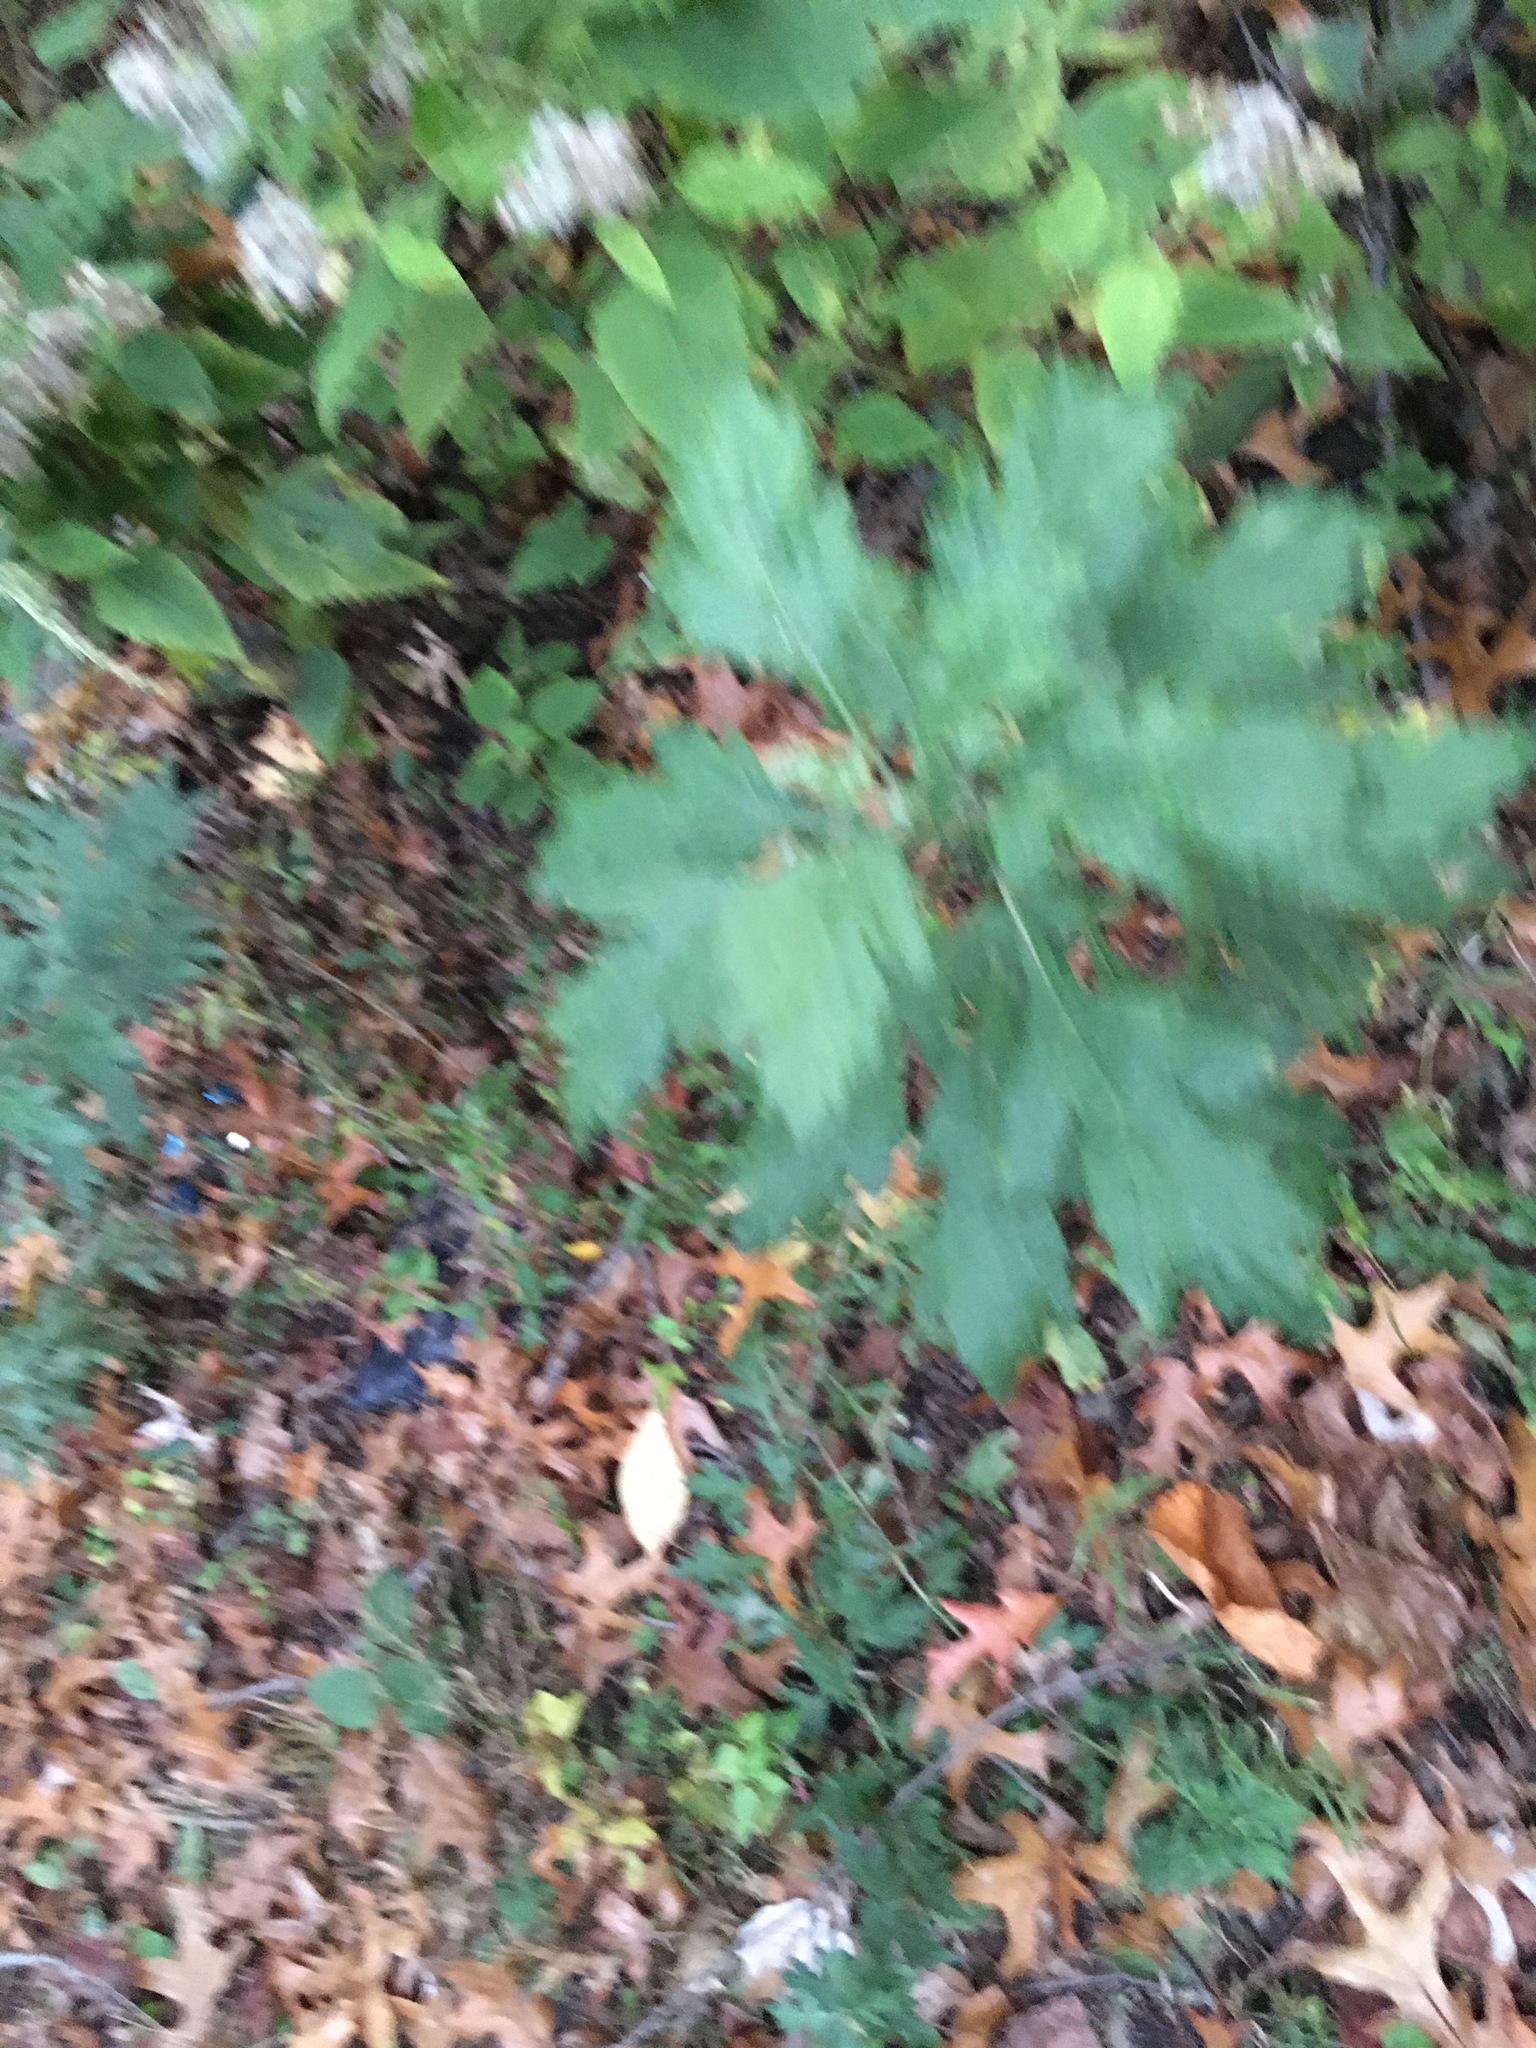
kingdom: Plantae
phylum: Tracheophyta
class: Magnoliopsida
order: Asterales
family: Asteraceae
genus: Artemisia
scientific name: Artemisia vulgaris
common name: Mugwort
